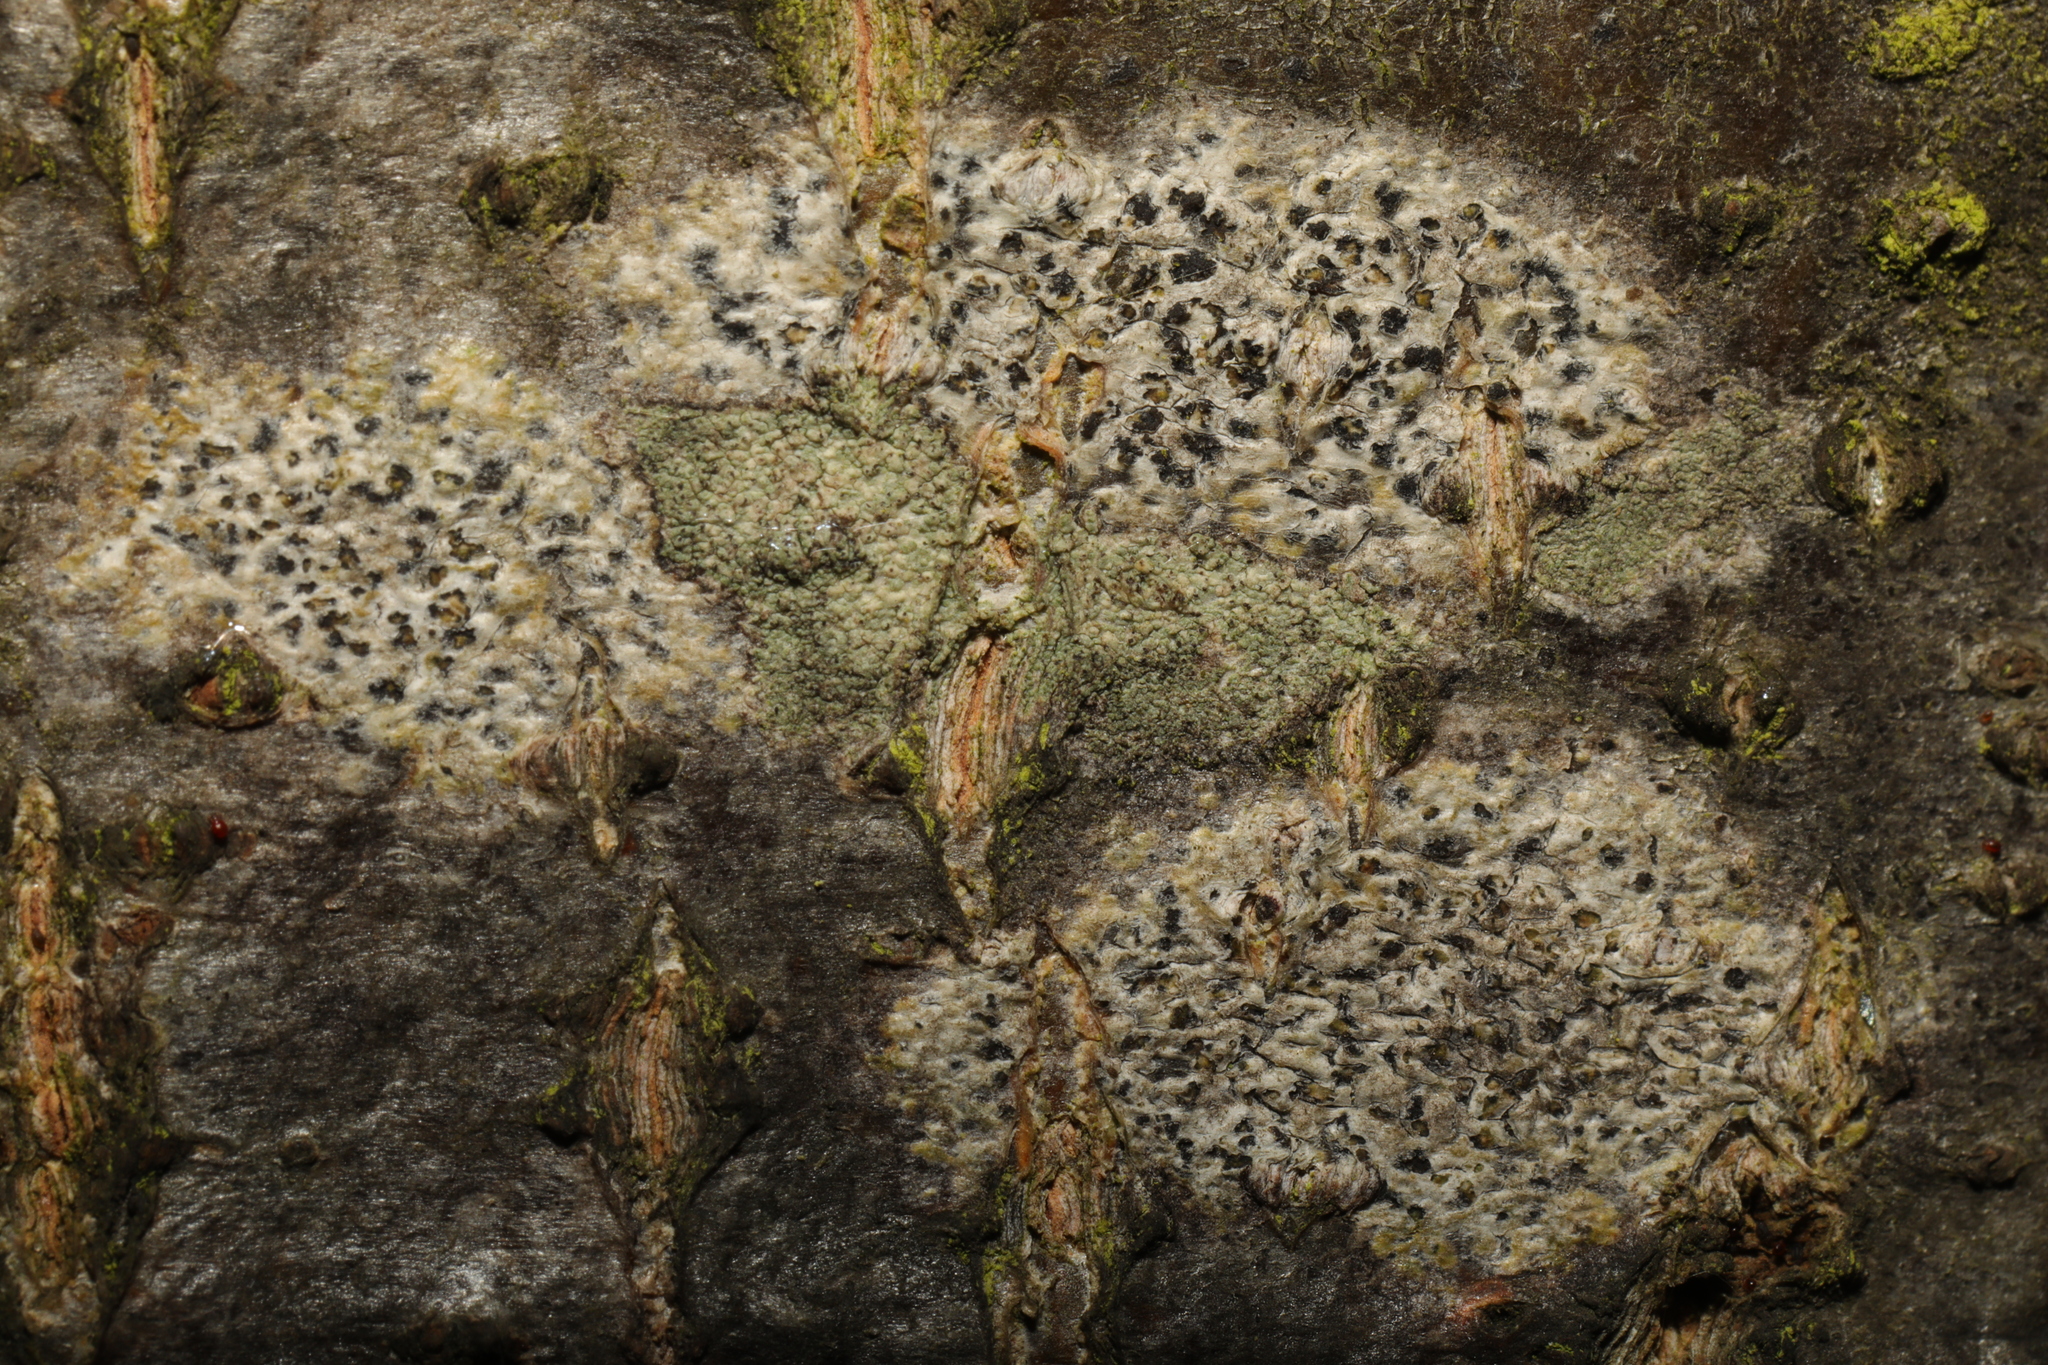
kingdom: Fungi
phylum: Ascomycota
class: Arthoniomycetes
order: Arthoniales
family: Arthoniaceae
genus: Arthonia
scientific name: Arthonia radiata
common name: Asterisk lichen
